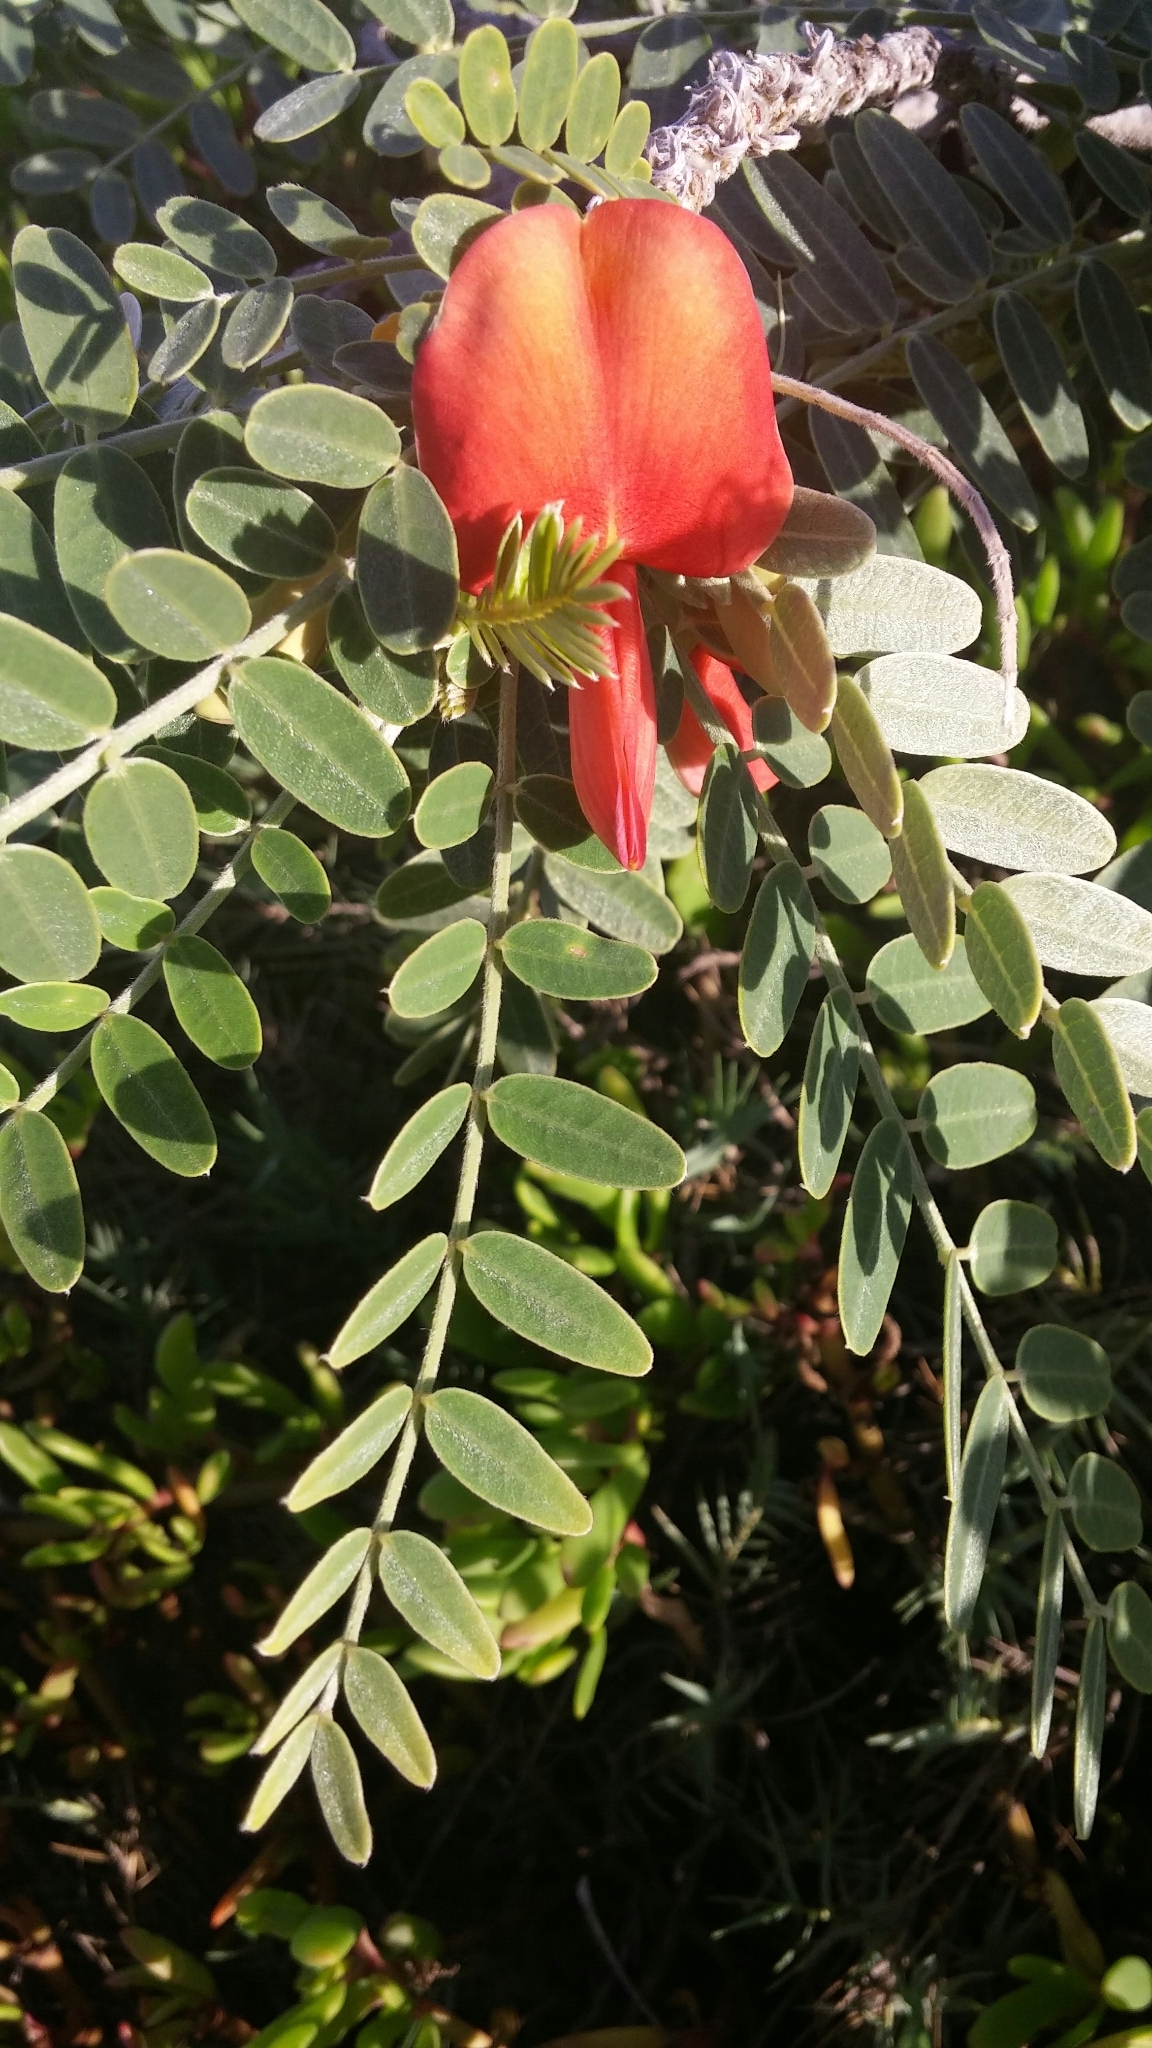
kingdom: Plantae
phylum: Tracheophyta
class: Magnoliopsida
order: Fabales
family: Fabaceae
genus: Sesbania
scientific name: Sesbania tomentosa
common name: `ohai
